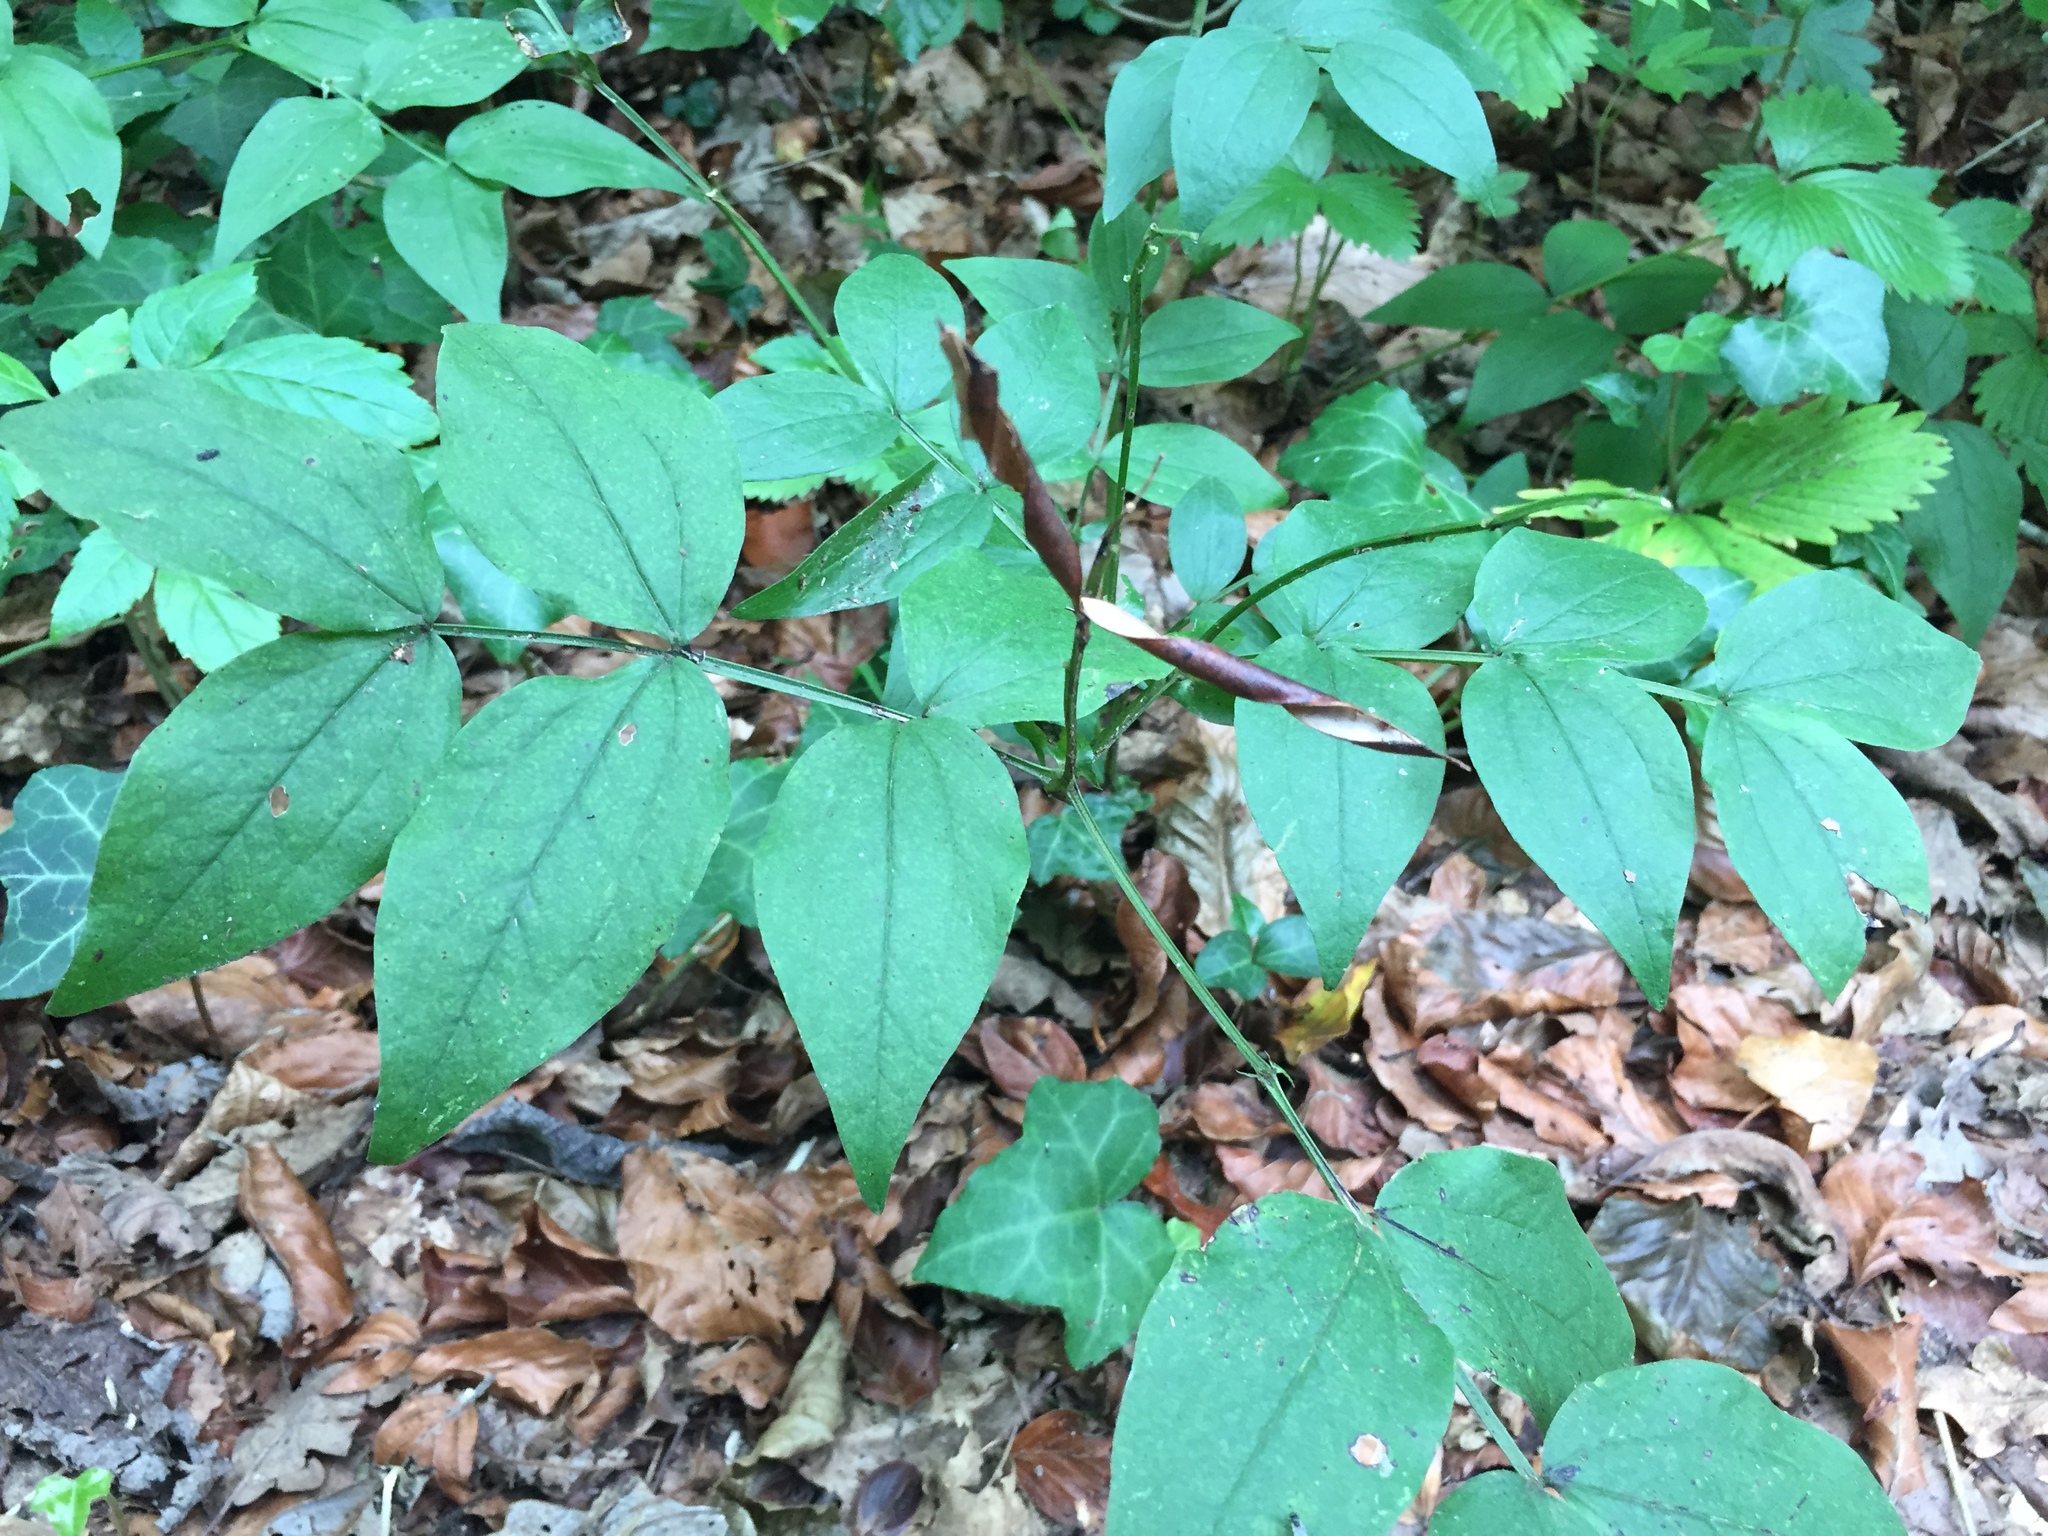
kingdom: Plantae
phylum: Tracheophyta
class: Magnoliopsida
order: Fabales
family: Fabaceae
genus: Lathyrus
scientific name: Lathyrus vernus
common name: Spring pea
